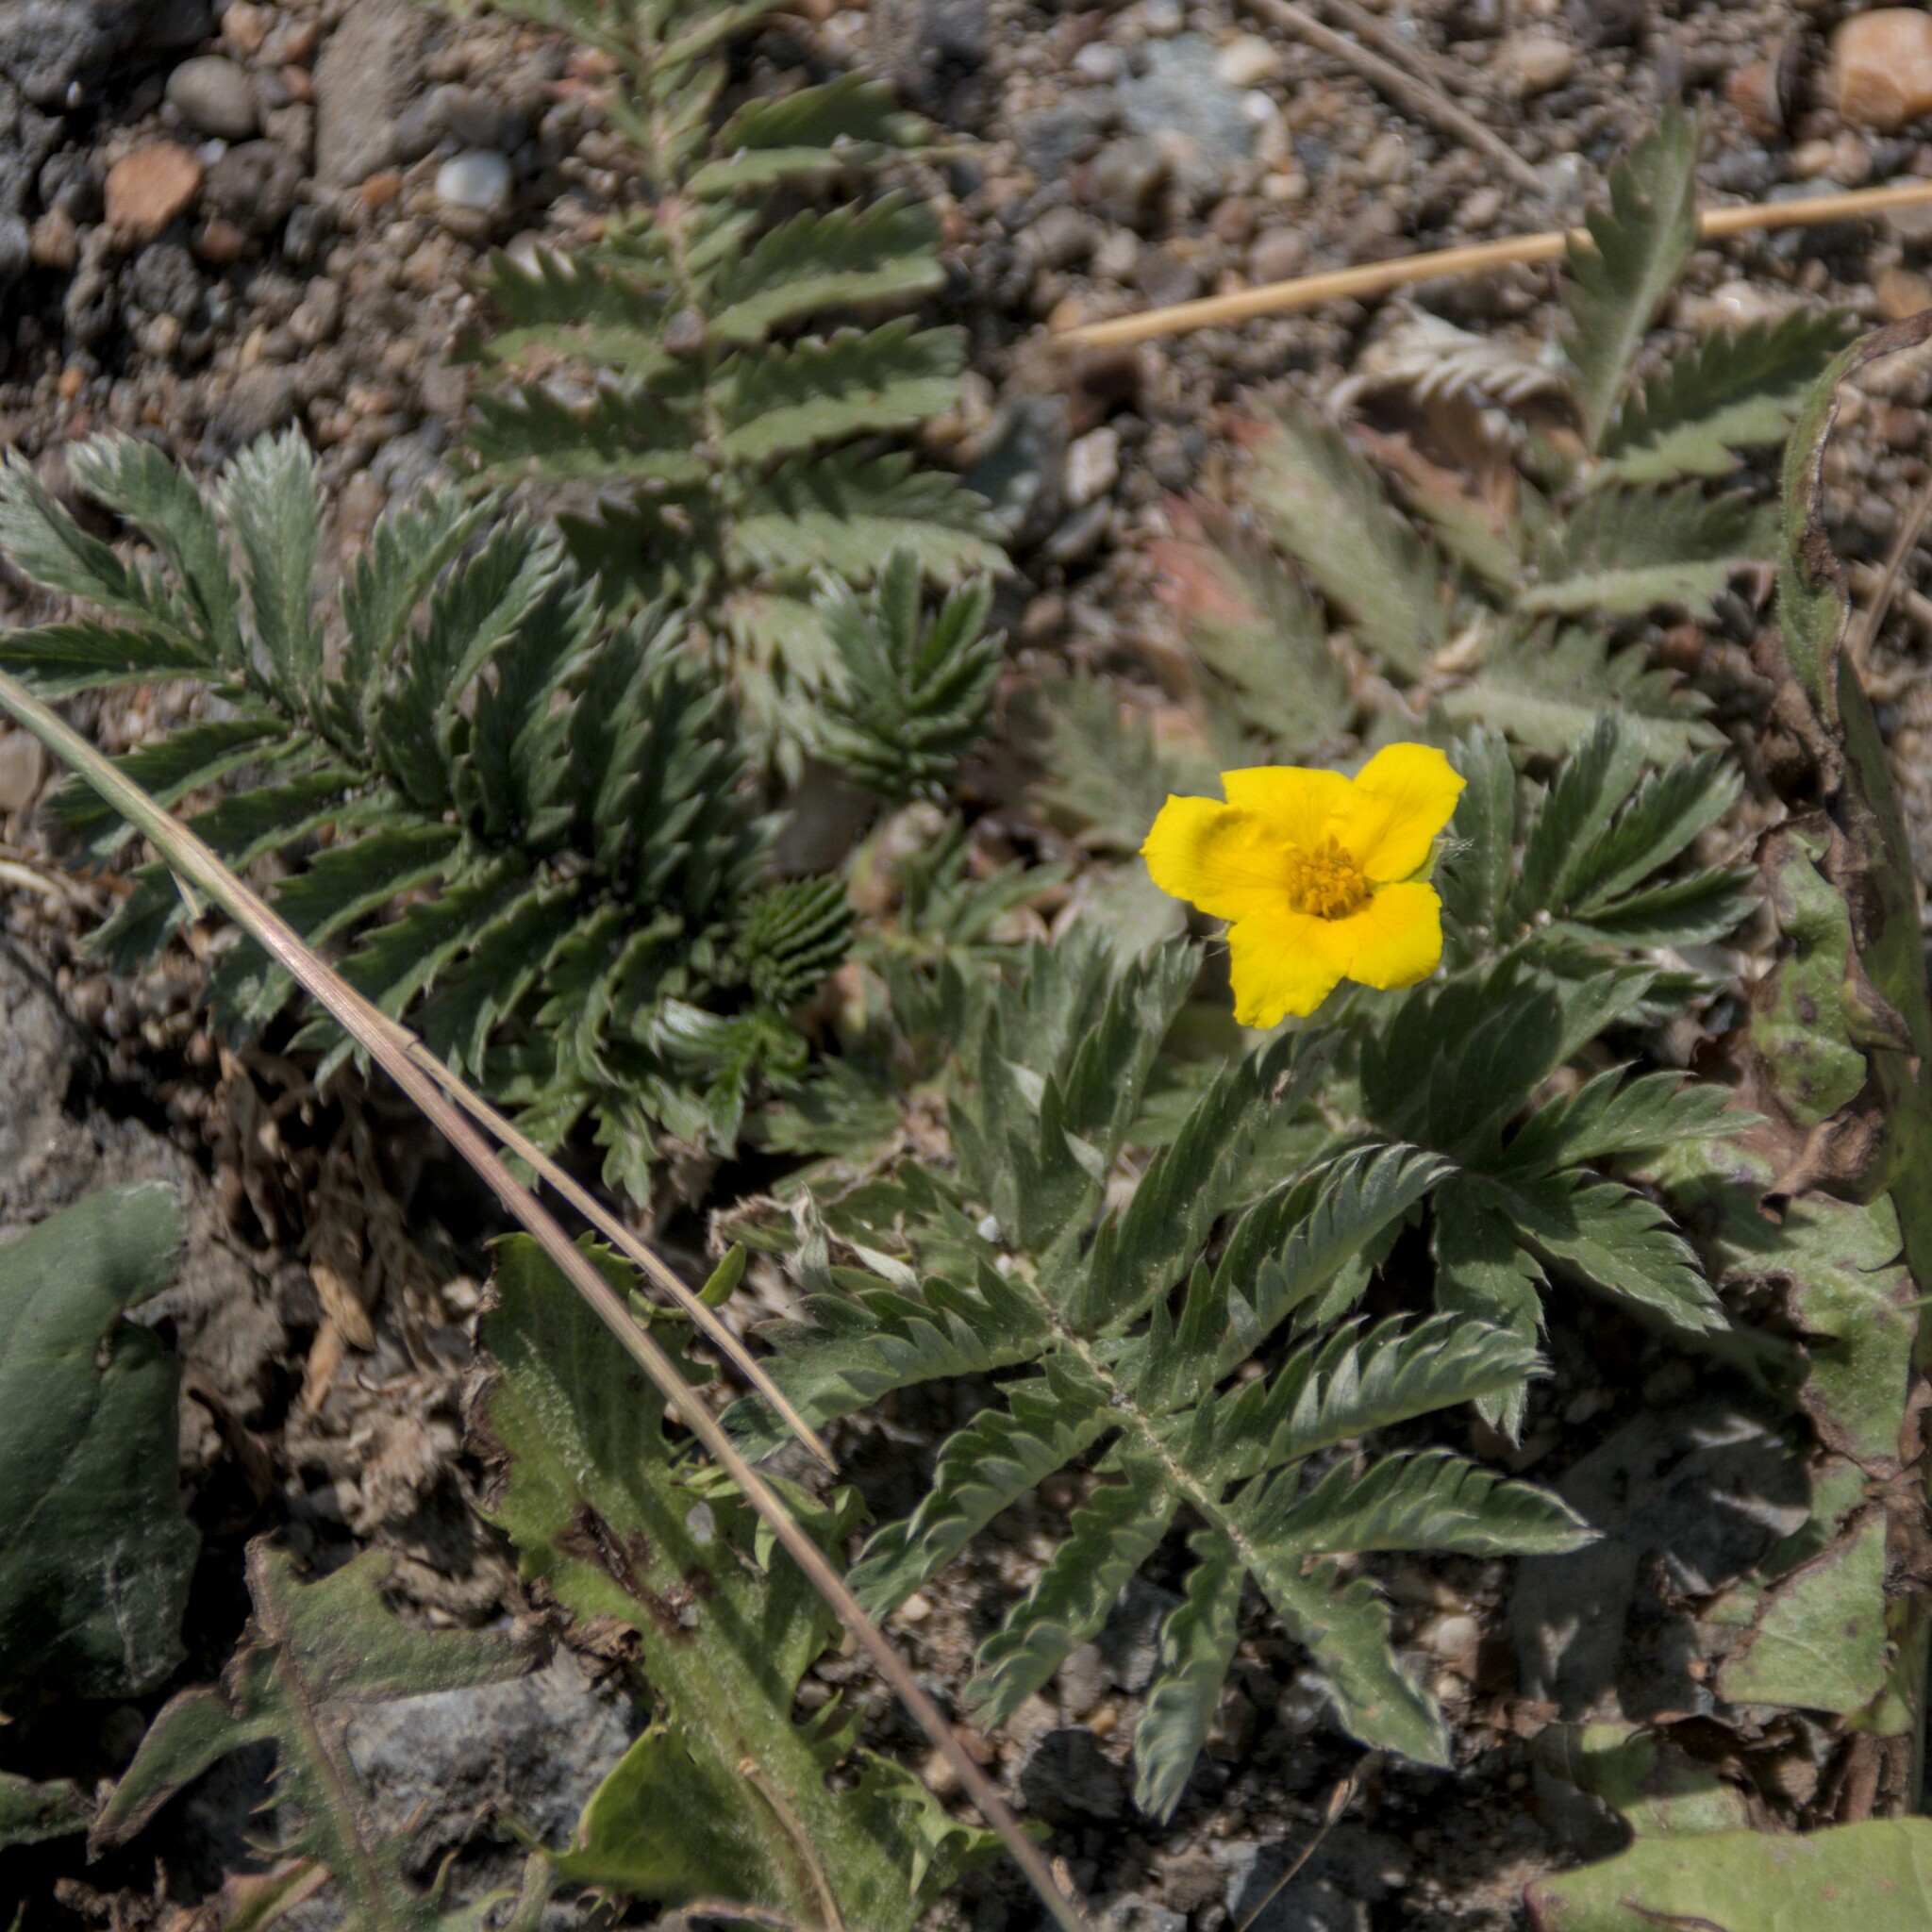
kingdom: Plantae
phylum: Tracheophyta
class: Magnoliopsida
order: Rosales
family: Rosaceae
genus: Argentina
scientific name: Argentina anserina
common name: Common silverweed
